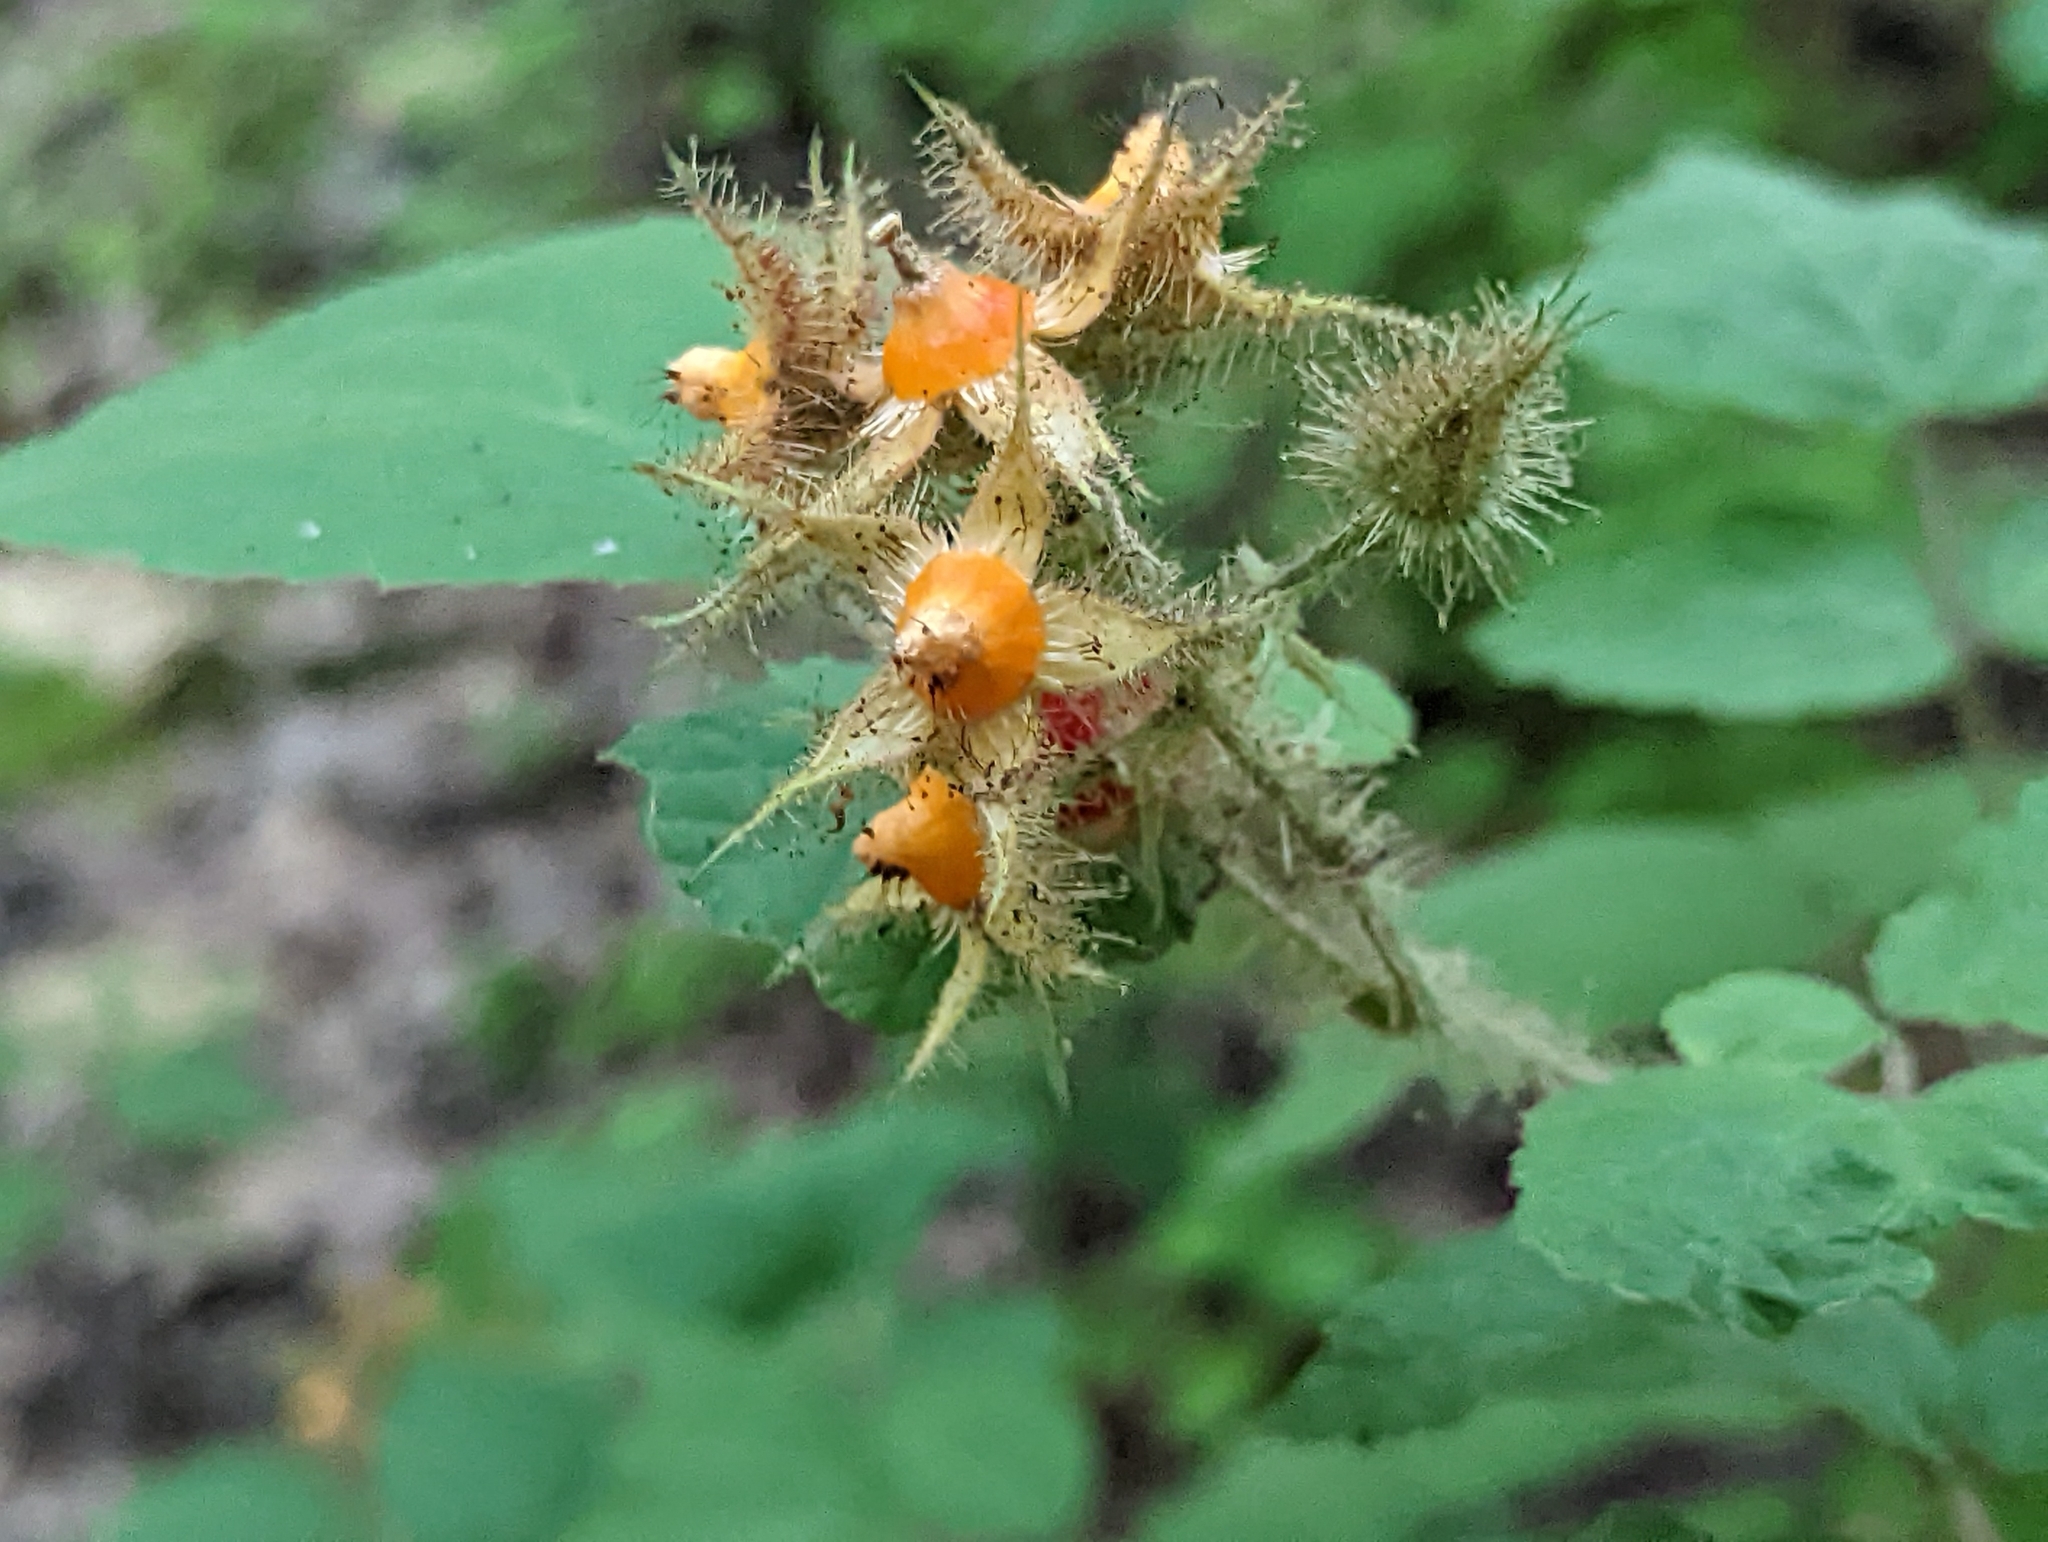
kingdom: Plantae
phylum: Tracheophyta
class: Magnoliopsida
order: Rosales
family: Rosaceae
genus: Rubus
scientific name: Rubus phoenicolasius
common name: Japanese wineberry
